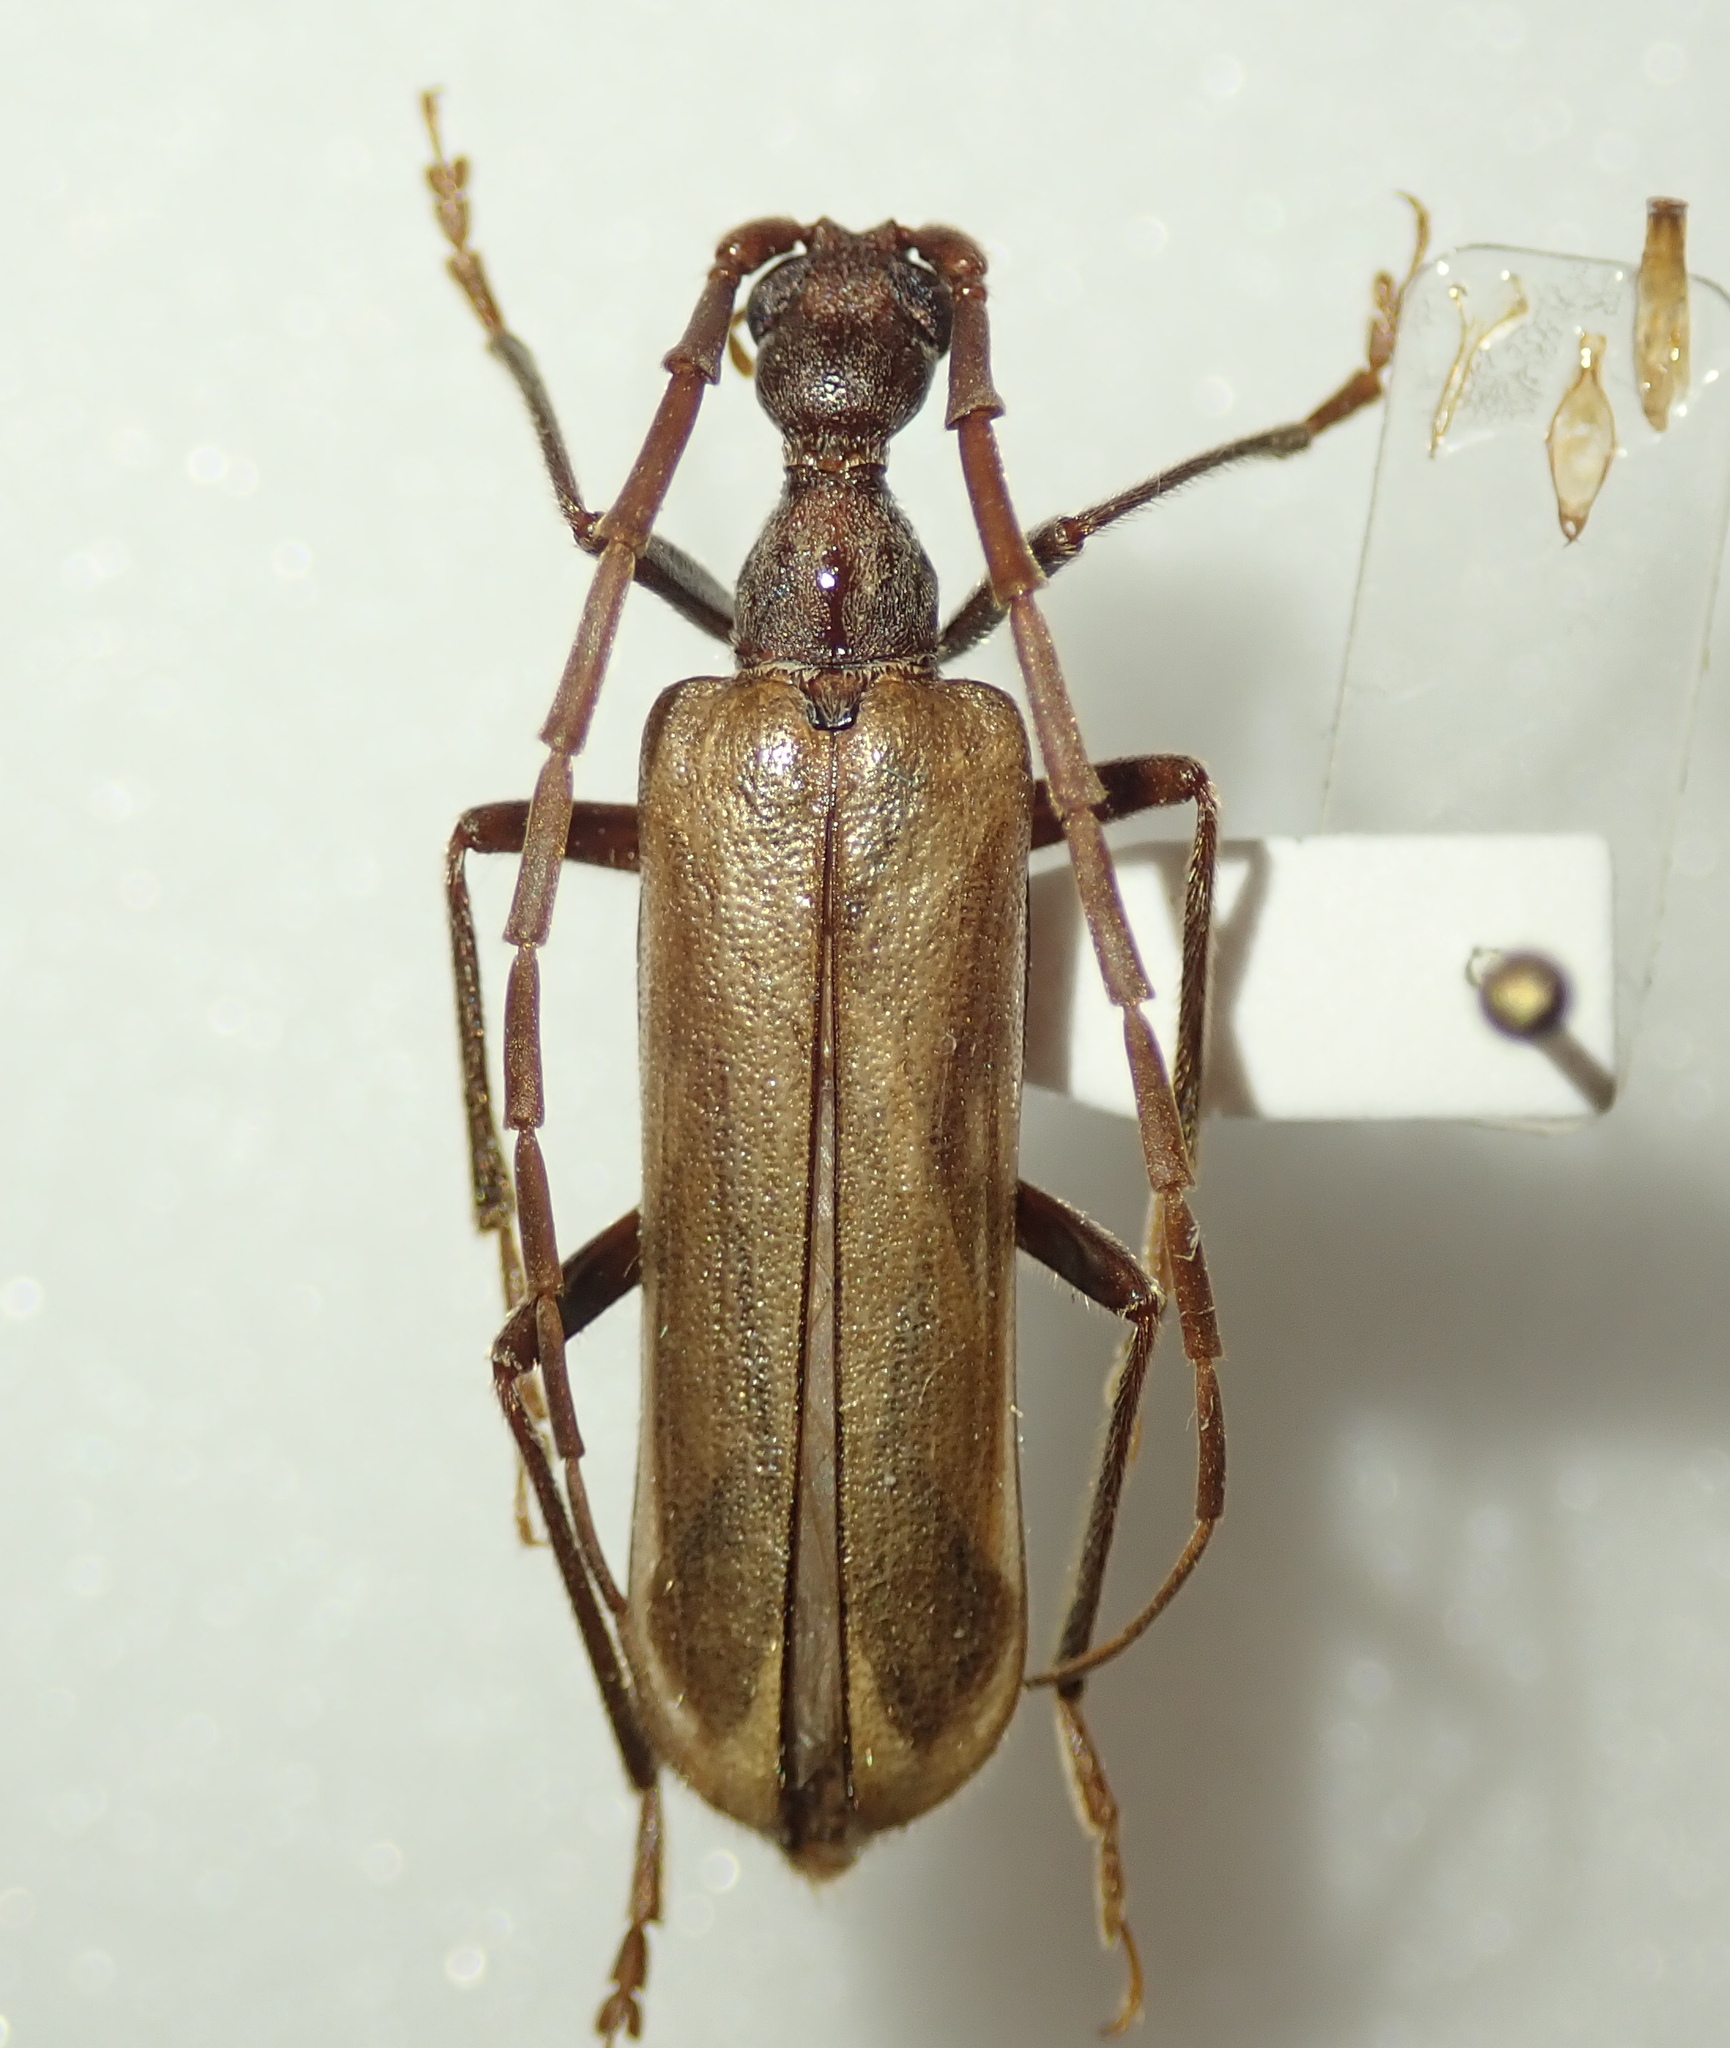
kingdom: Animalia
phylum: Arthropoda
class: Insecta
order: Coleoptera
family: Cerambycidae
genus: Vesperus
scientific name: Vesperus xatarti
